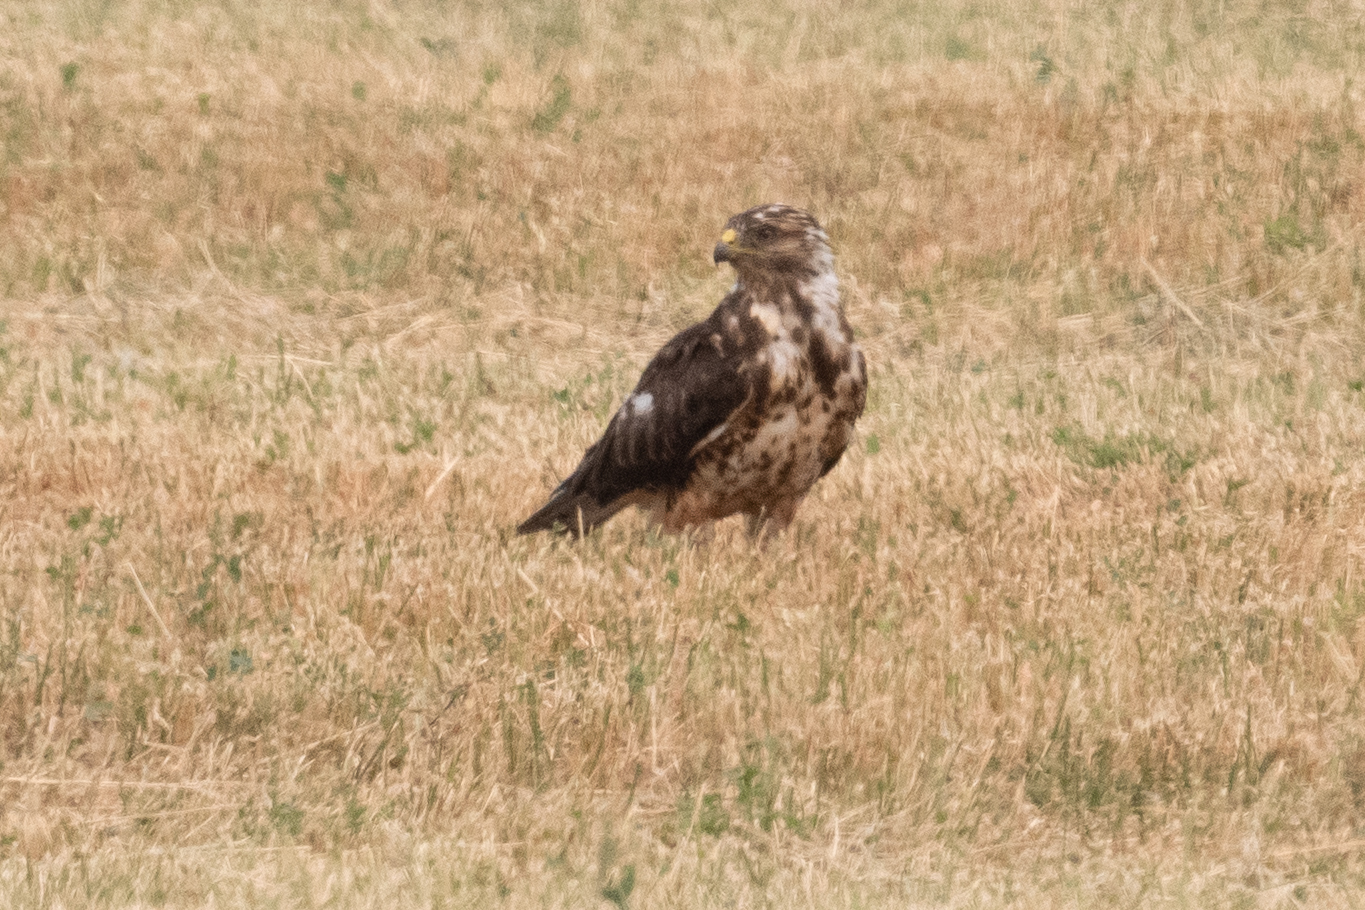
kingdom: Animalia
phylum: Chordata
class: Aves
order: Accipitriformes
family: Accipitridae
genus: Buteo
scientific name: Buteo swainsoni
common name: Swainson's hawk
